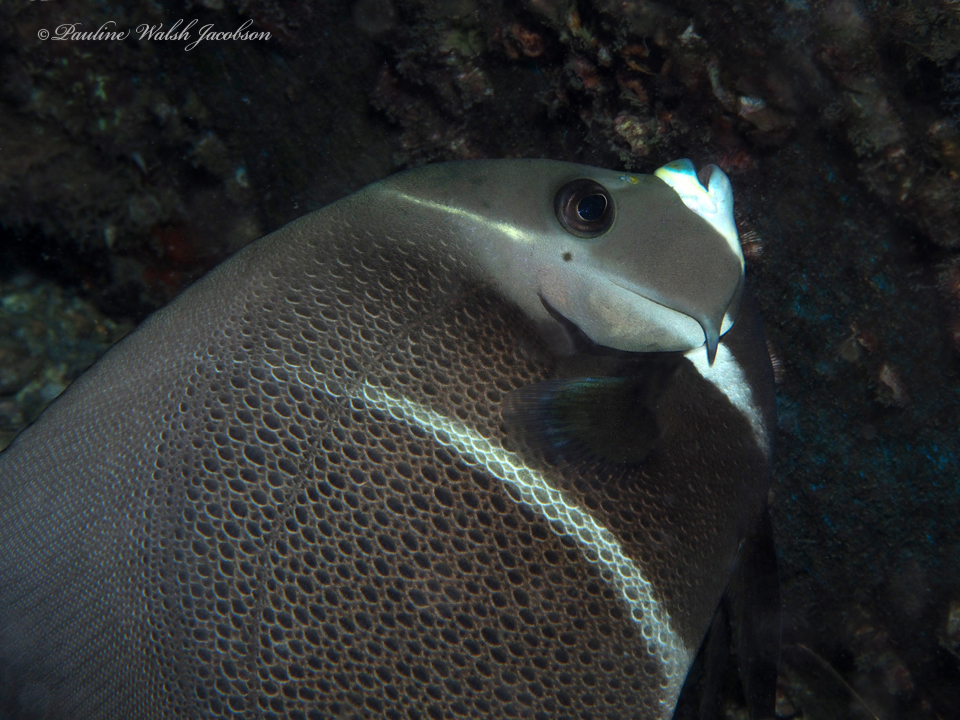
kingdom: Animalia
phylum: Chordata
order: Perciformes
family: Pomacanthidae
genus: Pomacanthus
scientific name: Pomacanthus arcuatus
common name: Gray angelfish
